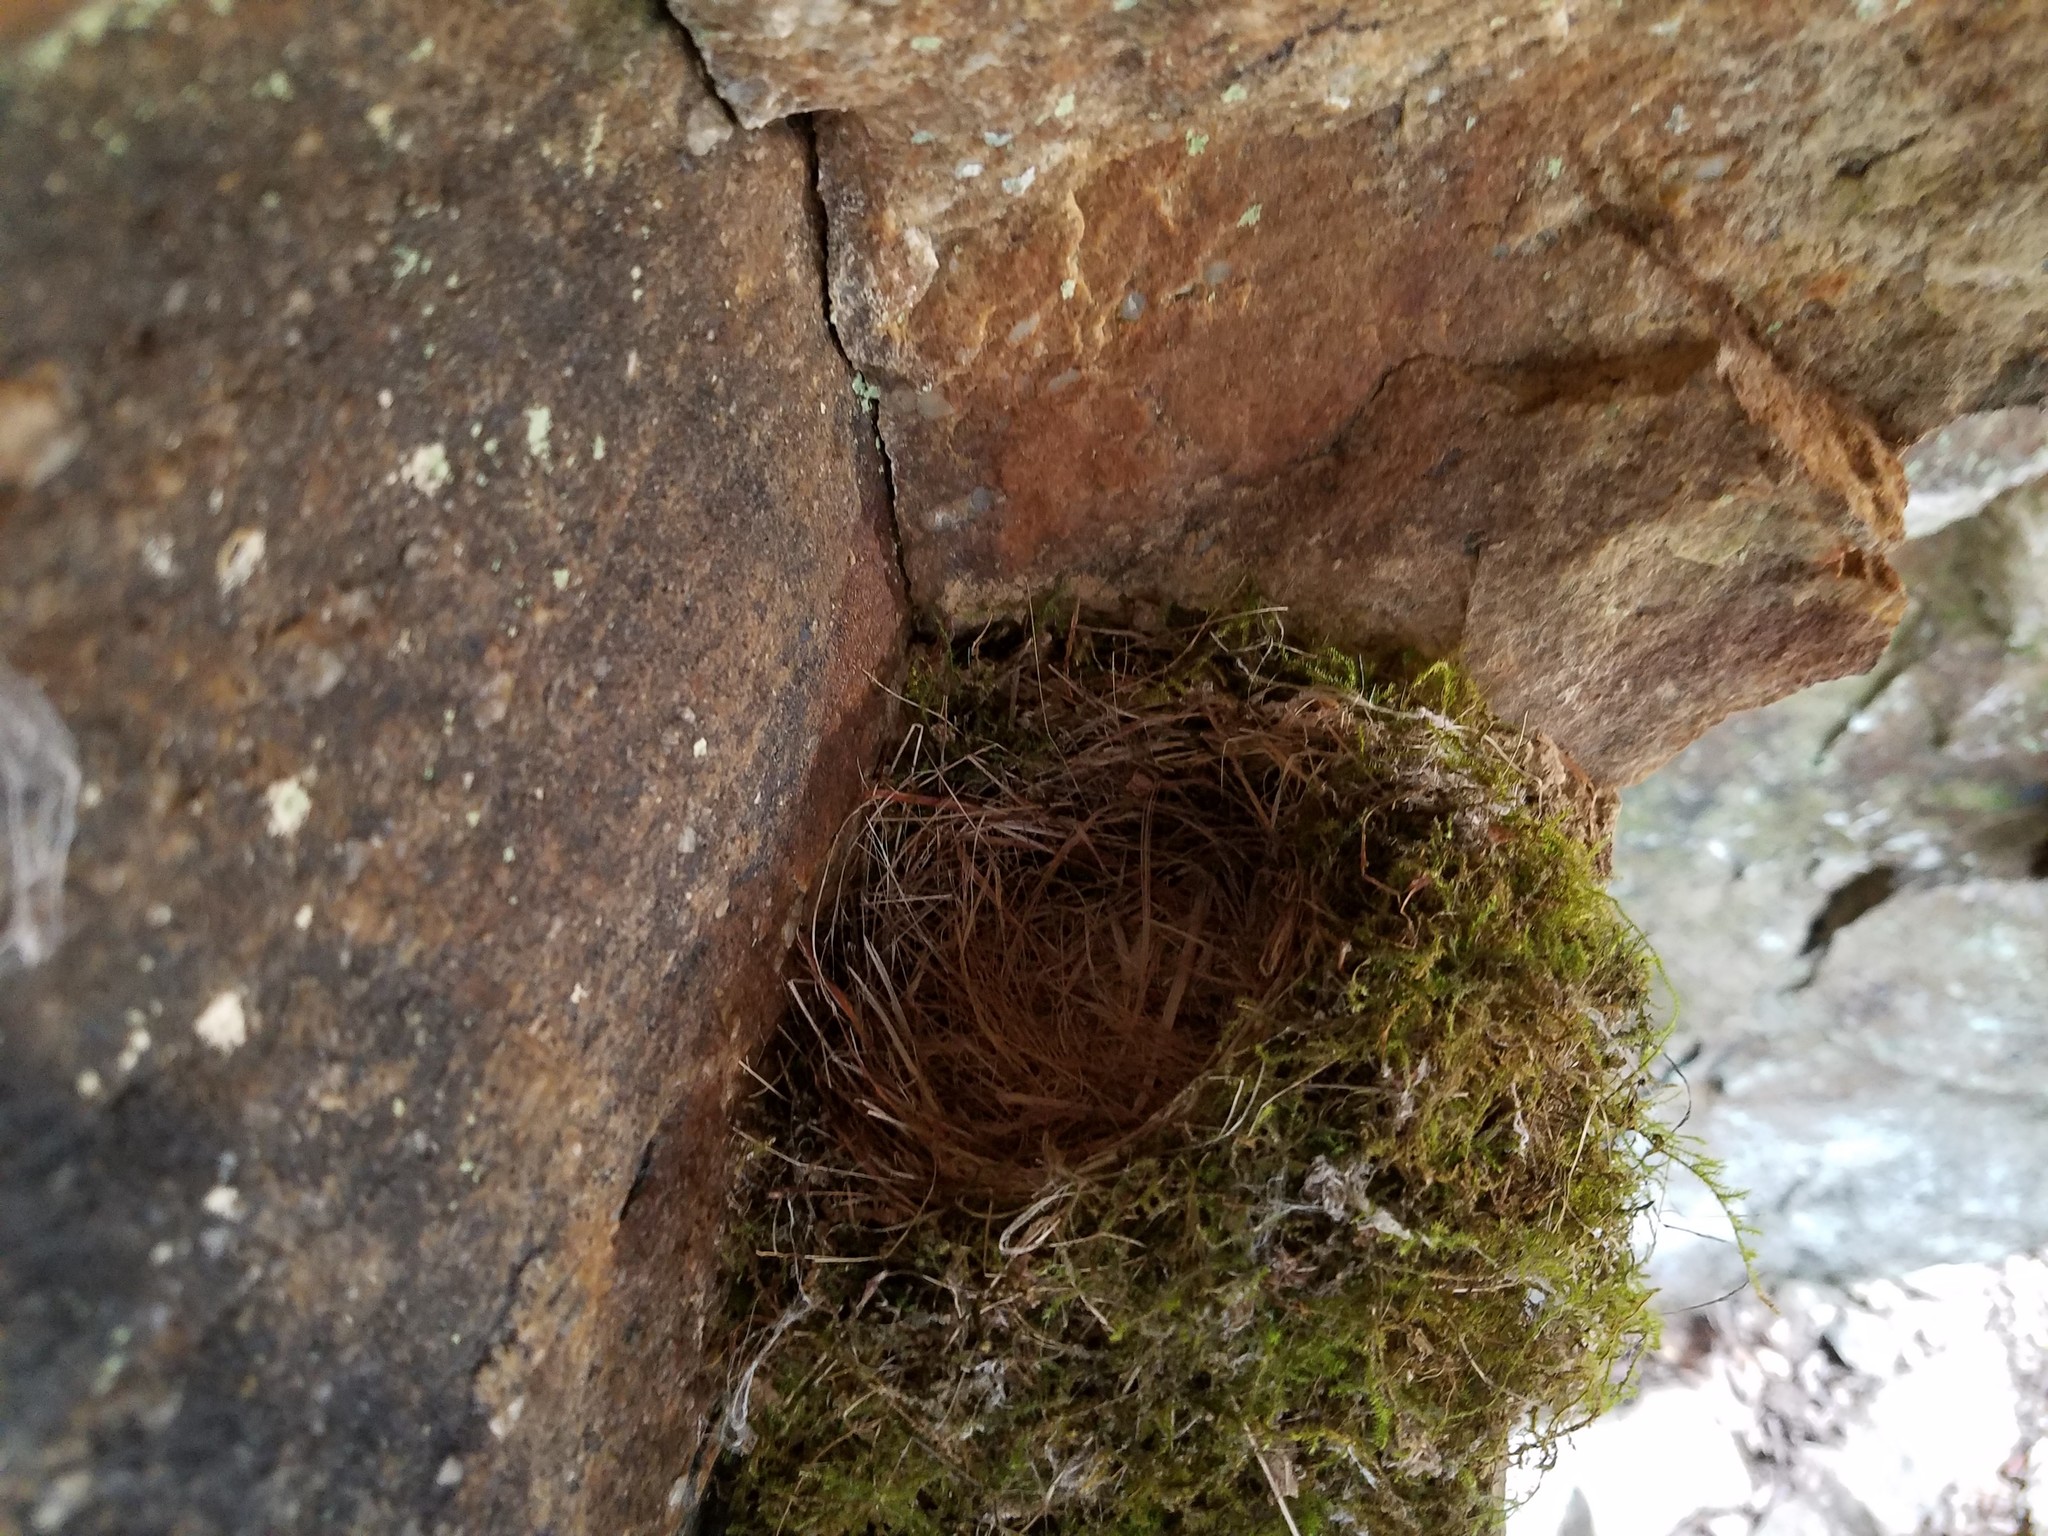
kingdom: Animalia
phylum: Chordata
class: Aves
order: Passeriformes
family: Tyrannidae
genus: Sayornis
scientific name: Sayornis phoebe
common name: Eastern phoebe
